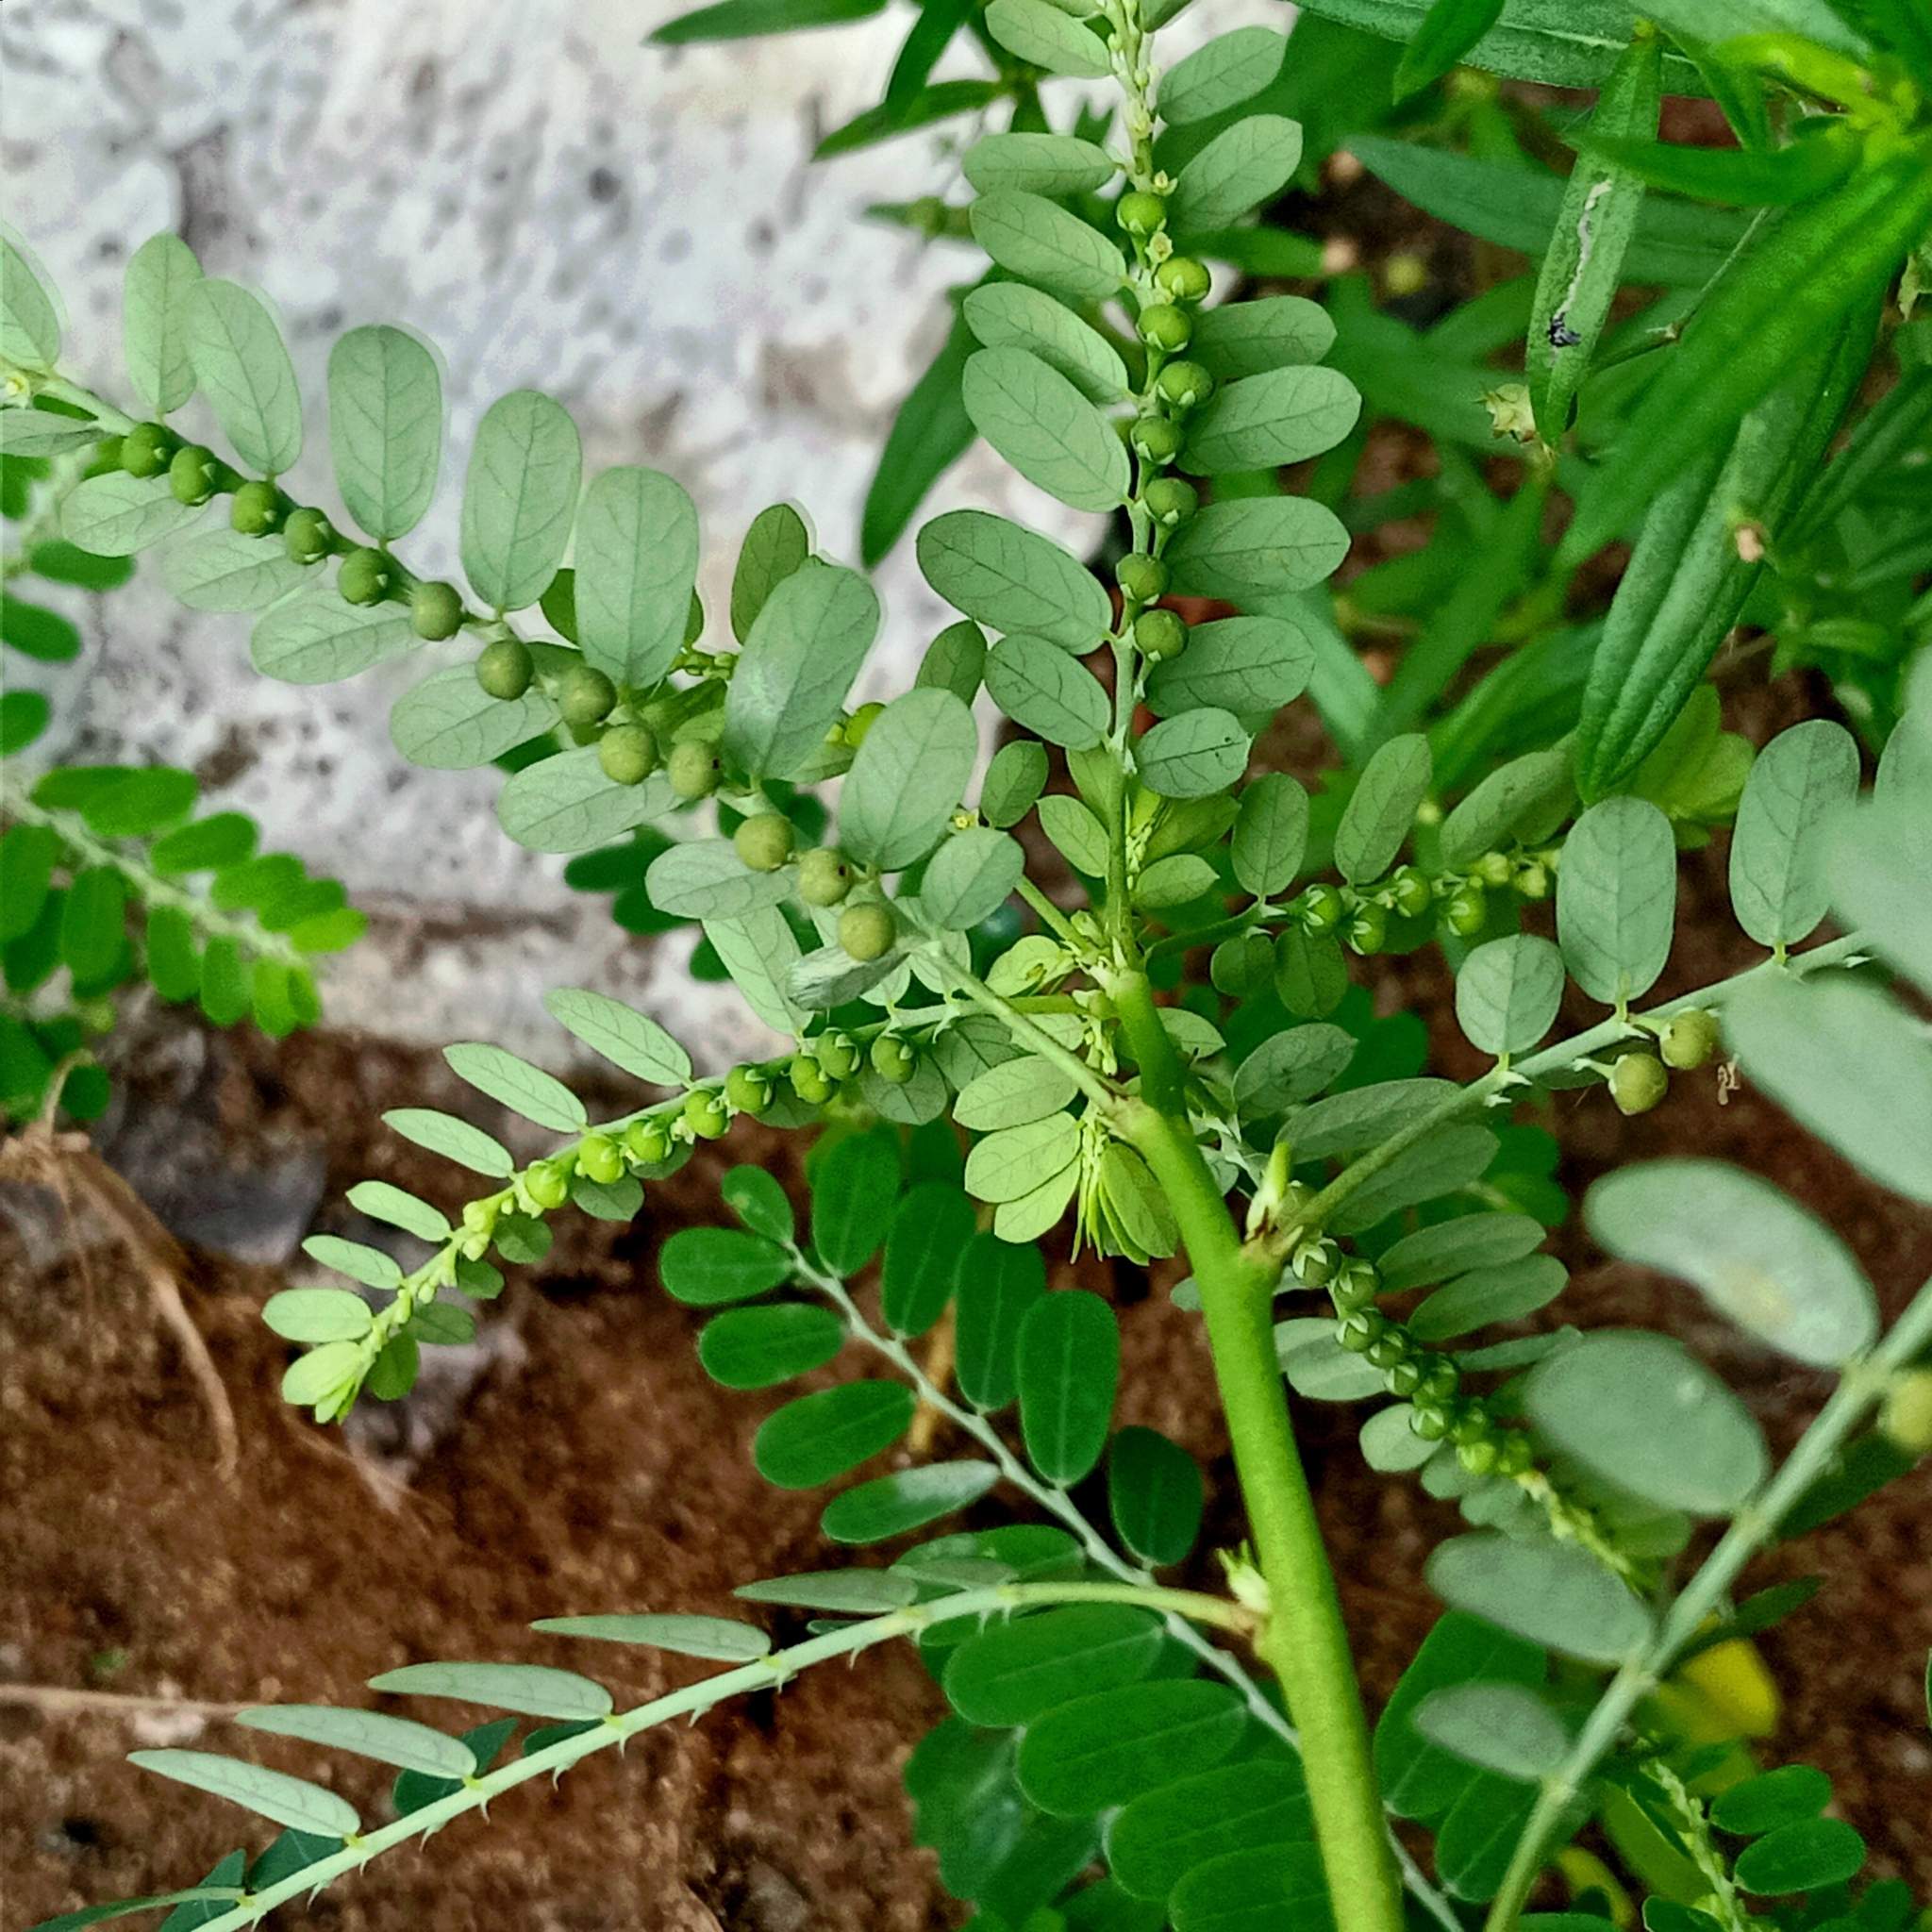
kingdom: Plantae
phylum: Tracheophyta
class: Magnoliopsida
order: Malpighiales
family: Phyllanthaceae
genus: Phyllanthus
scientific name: Phyllanthus urinaria
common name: Chamber bitter
